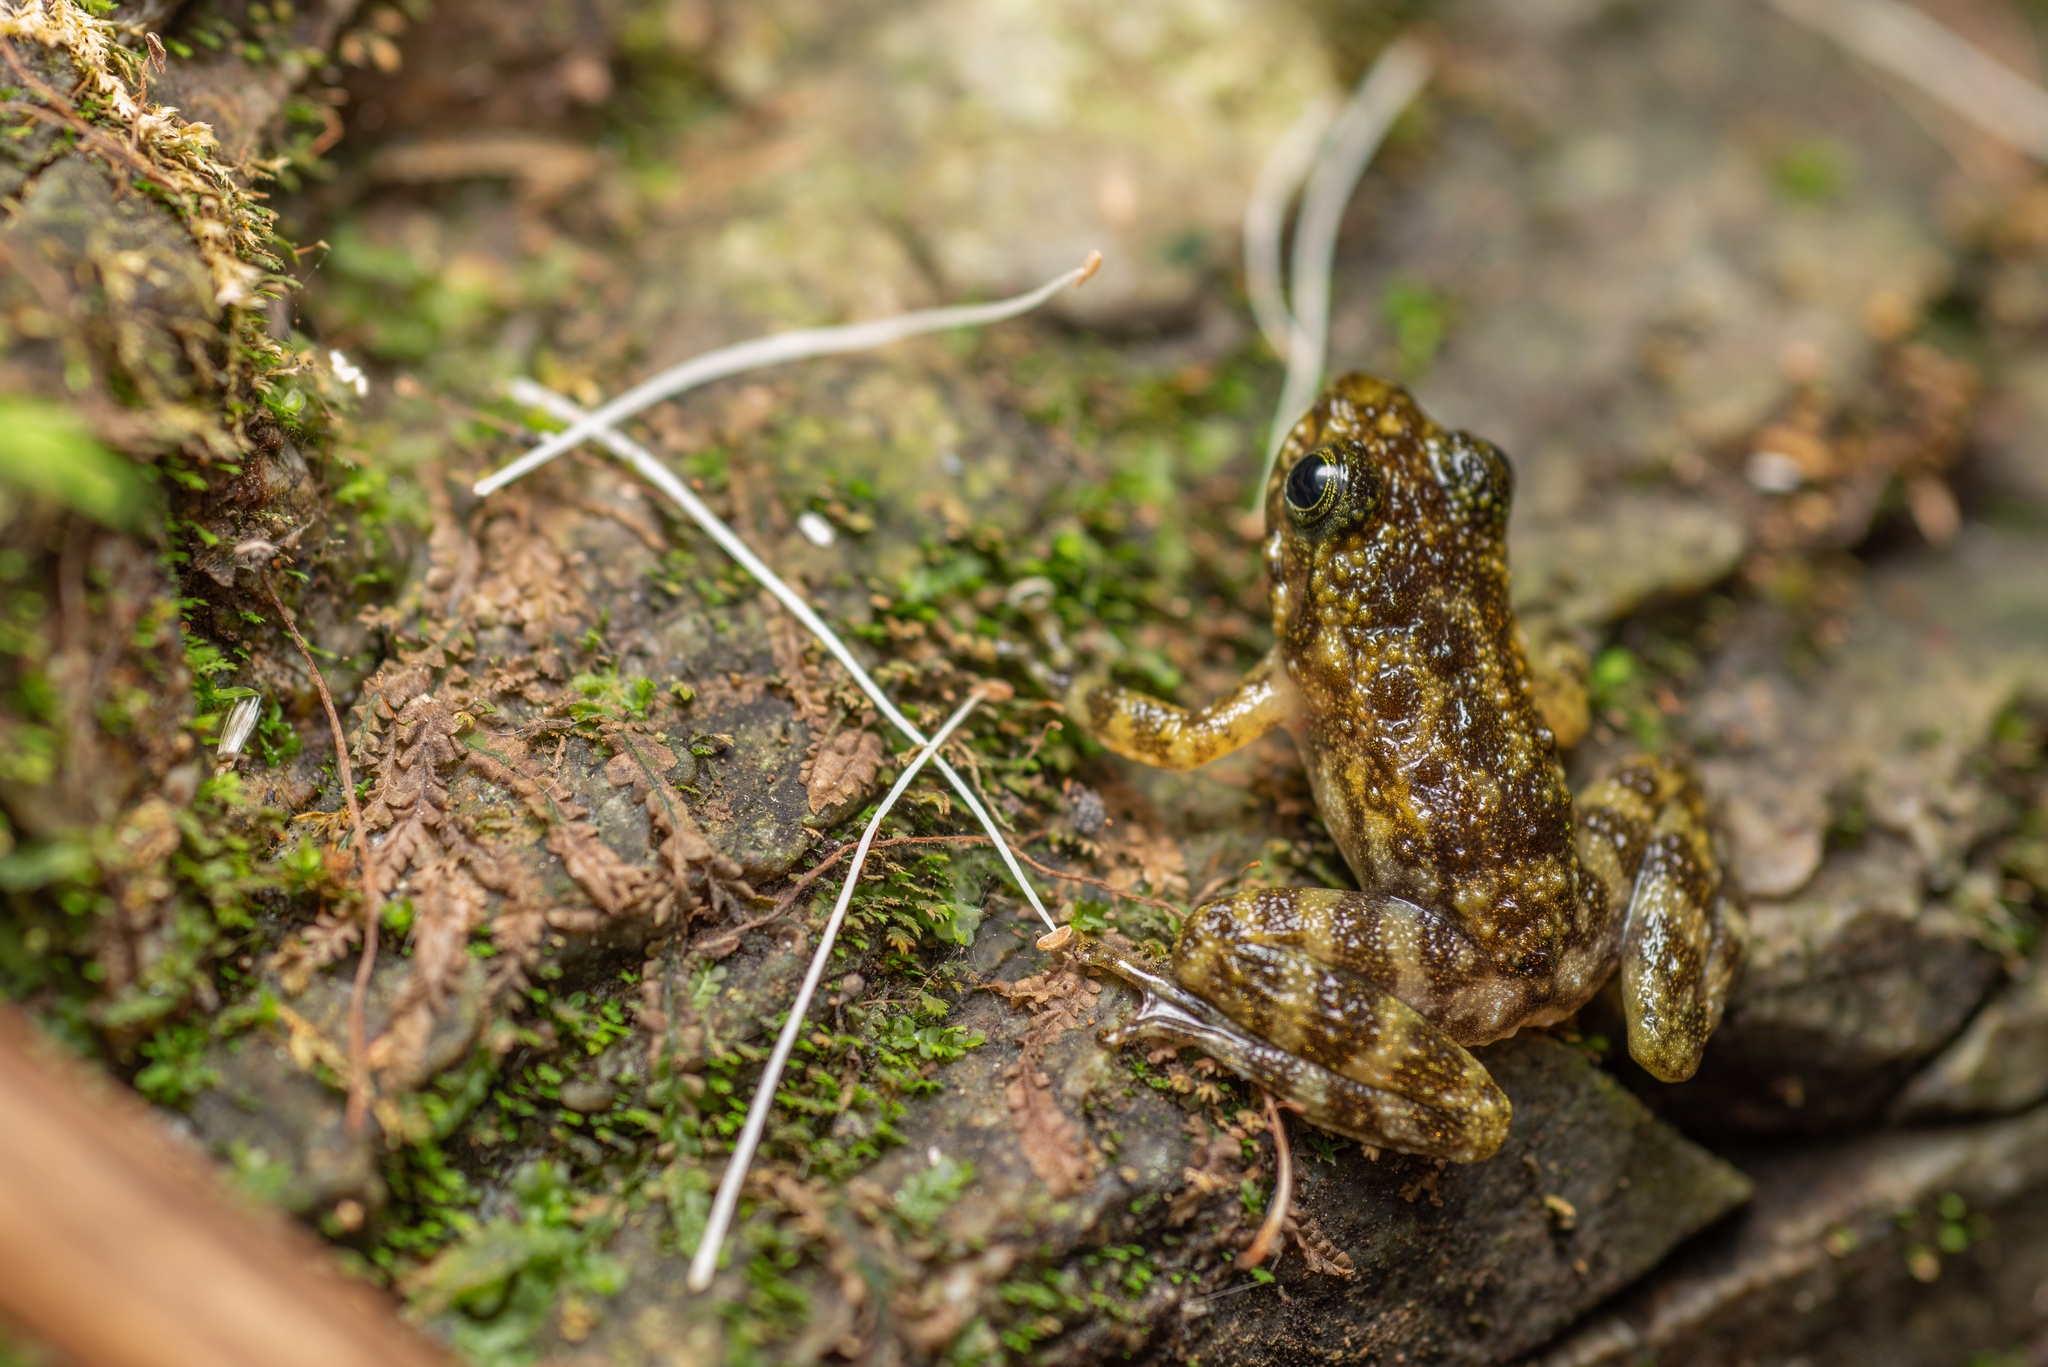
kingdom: Animalia
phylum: Chordata
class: Amphibia
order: Anura
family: Ranidae
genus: Amolops
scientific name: Amolops hongkongensis
